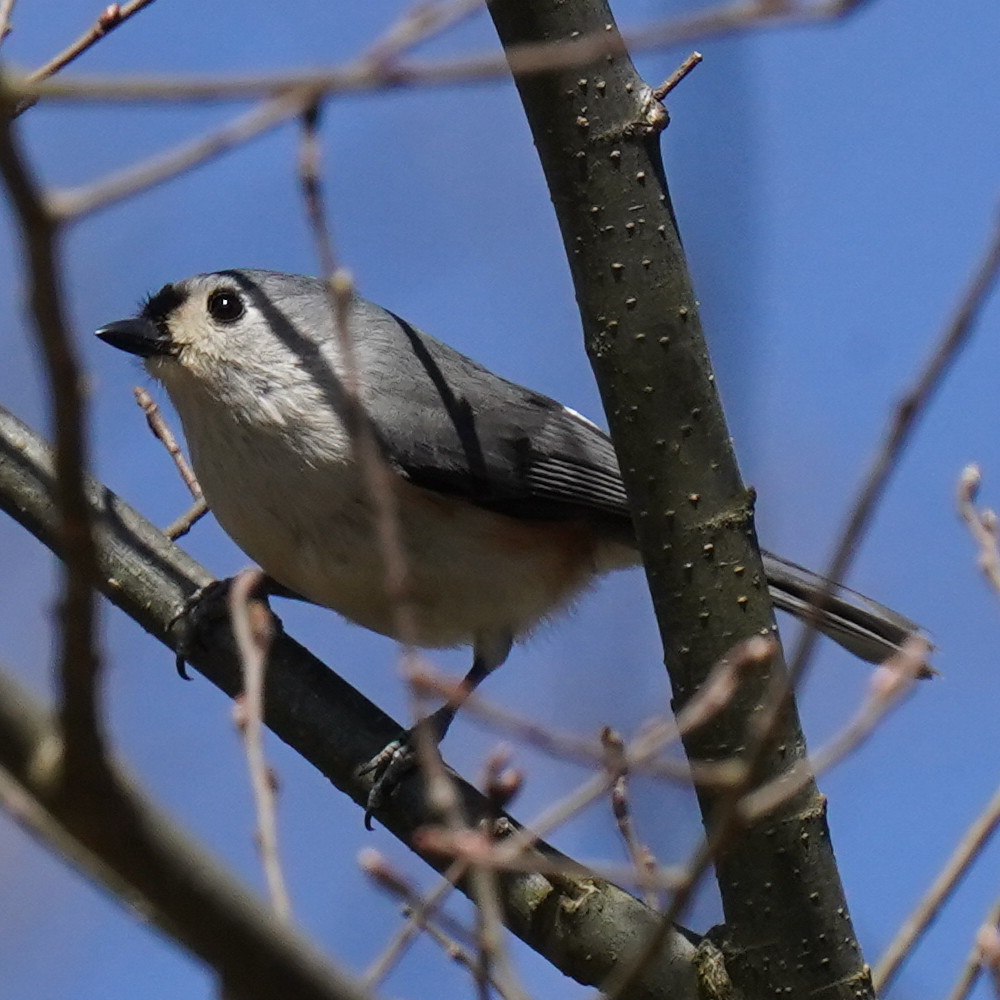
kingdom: Animalia
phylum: Chordata
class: Aves
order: Passeriformes
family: Paridae
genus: Baeolophus
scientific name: Baeolophus bicolor
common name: Tufted titmouse
